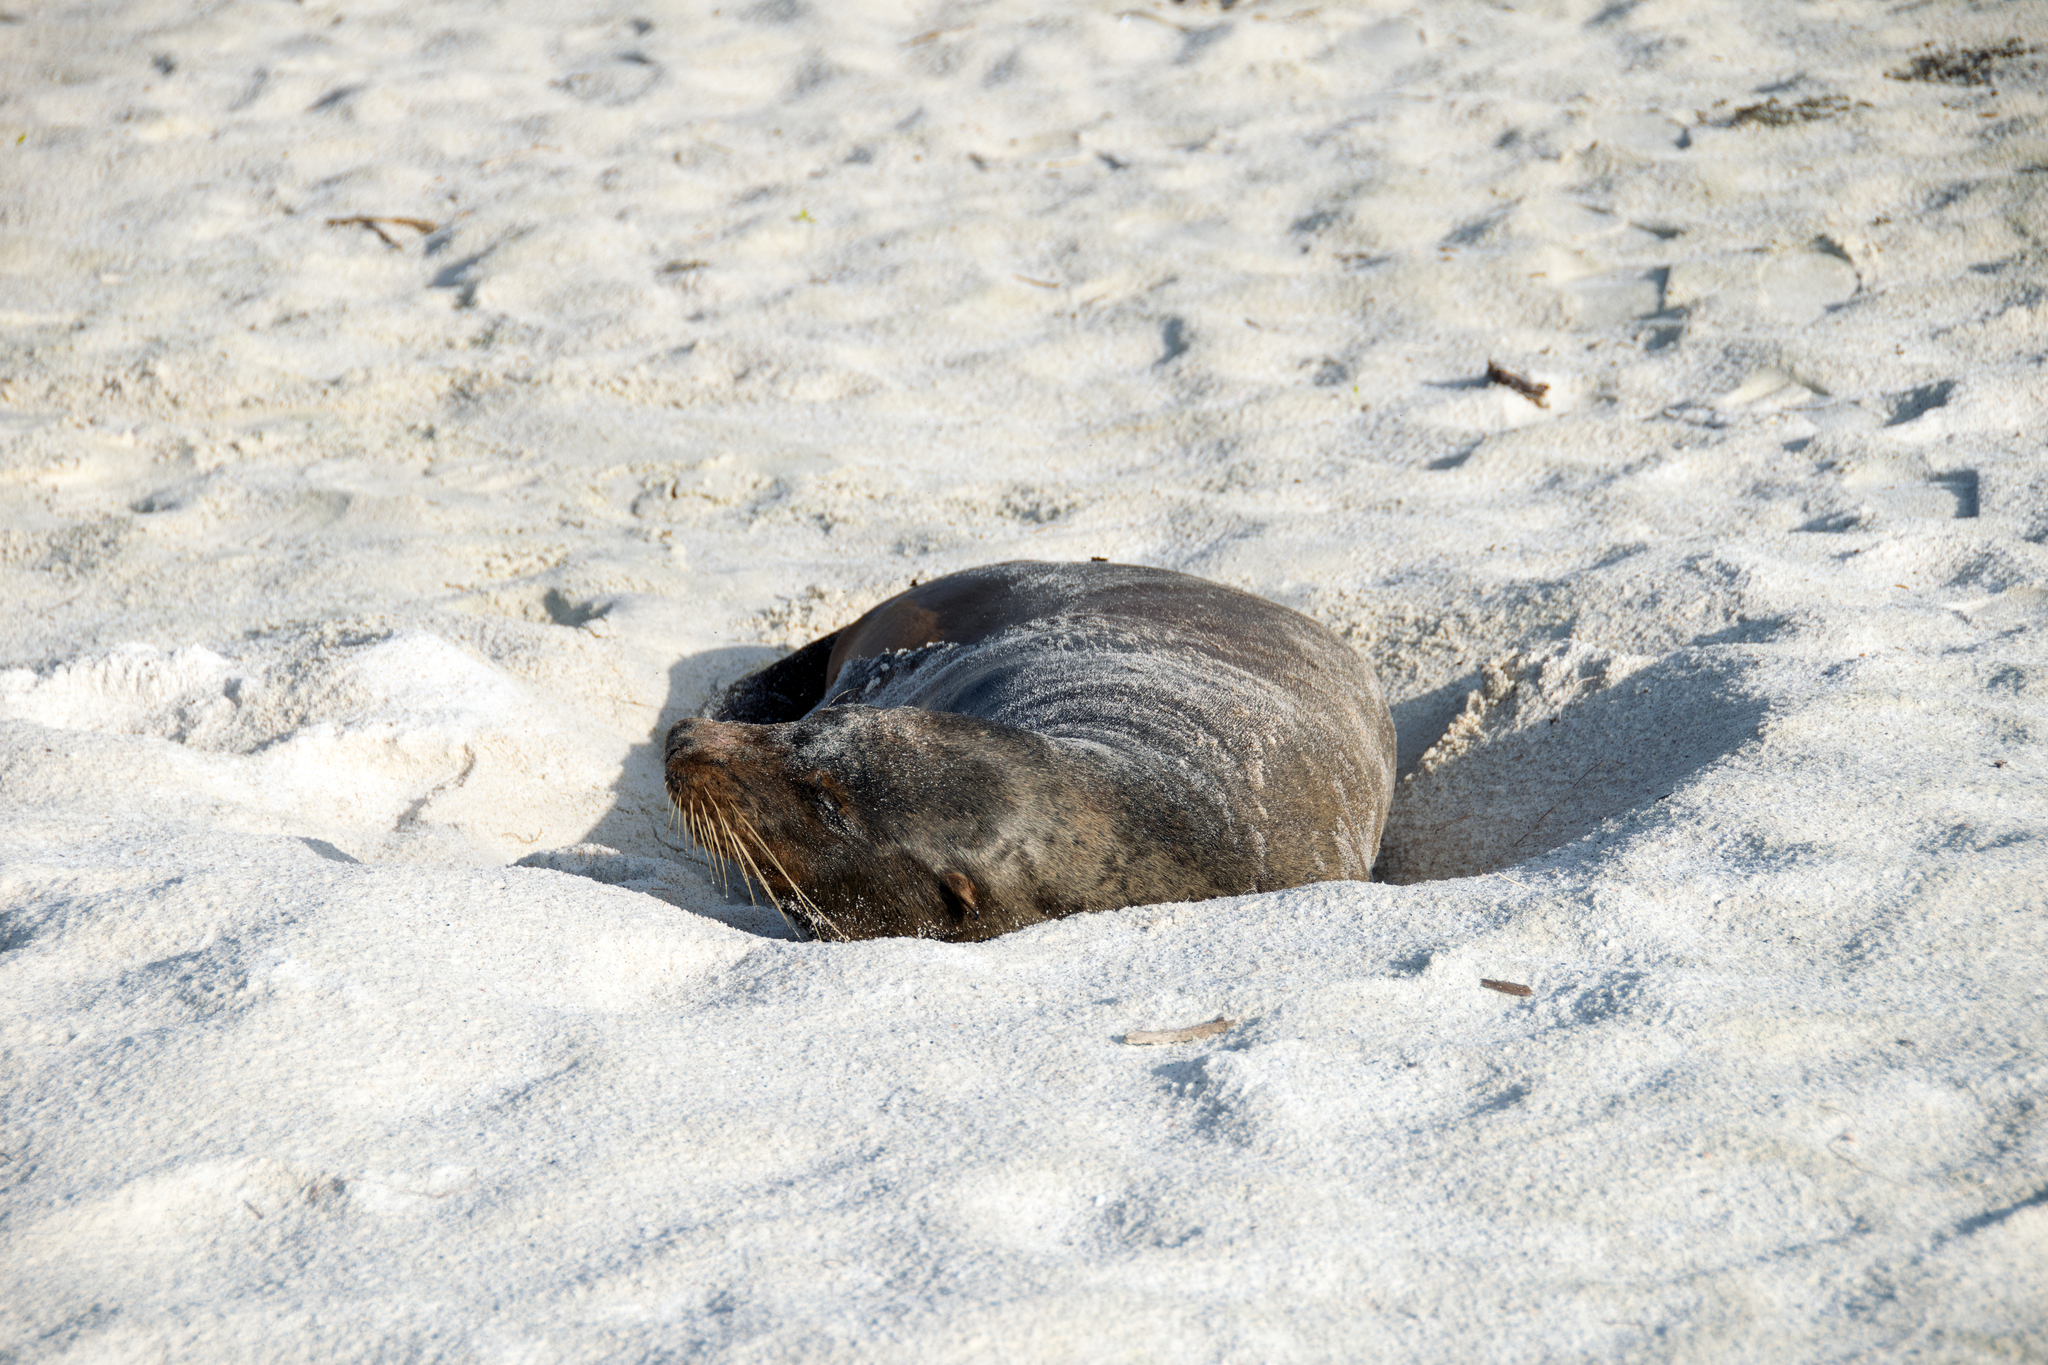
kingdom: Animalia
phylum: Chordata
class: Mammalia
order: Carnivora
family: Otariidae
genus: Zalophus
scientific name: Zalophus wollebaeki
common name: Galapagos sea lion
